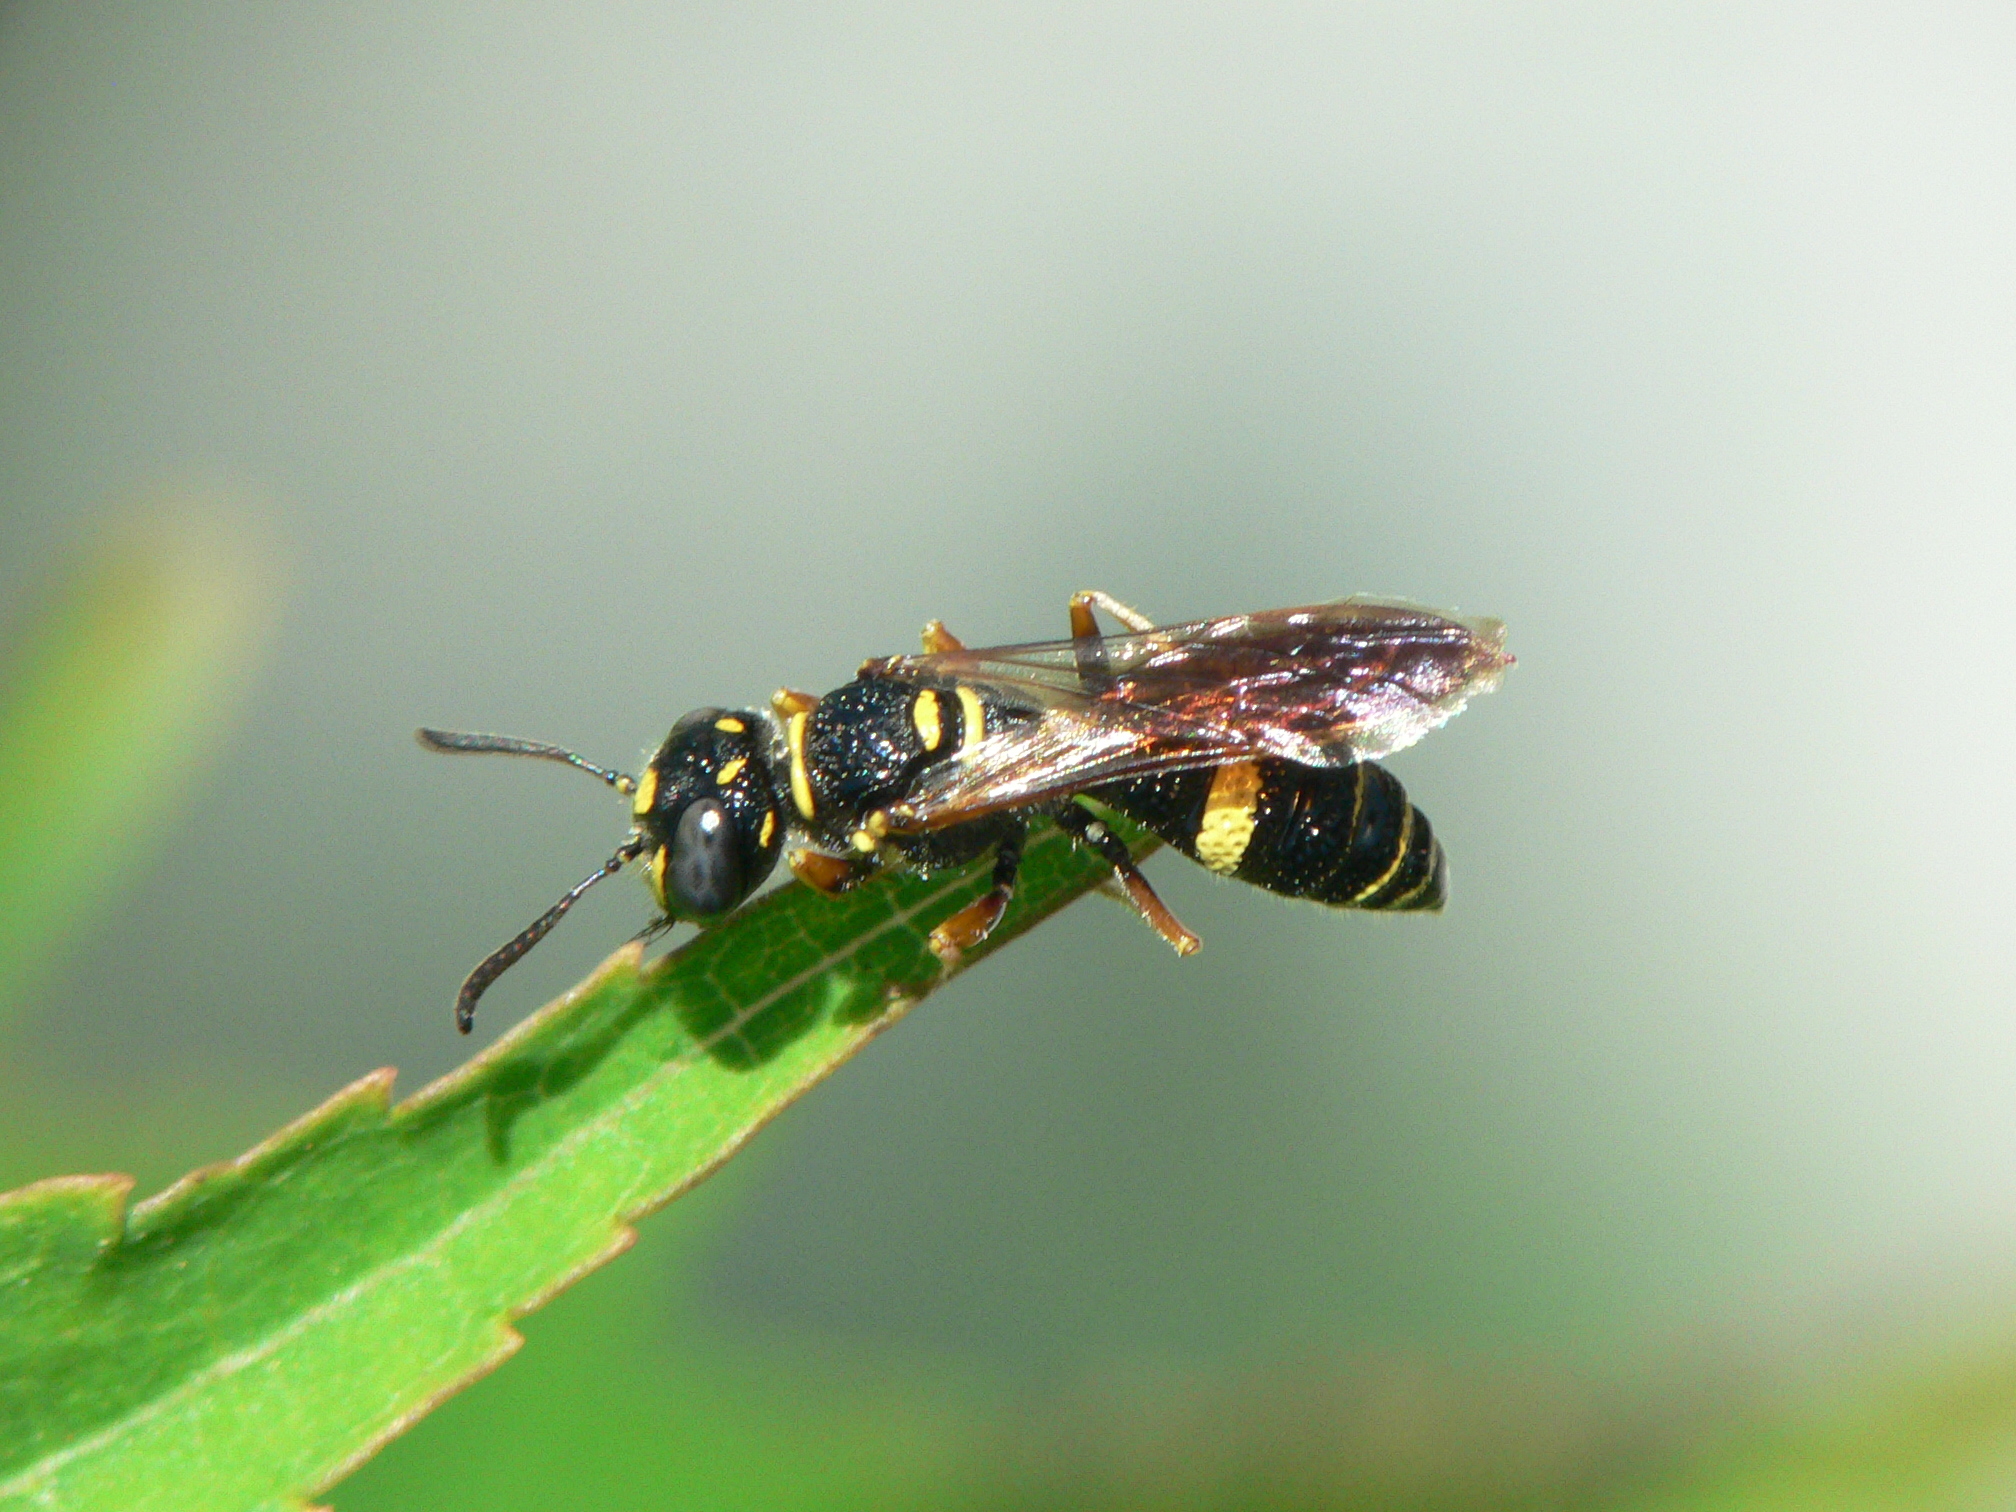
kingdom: Animalia
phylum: Arthropoda
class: Insecta
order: Hymenoptera
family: Crabronidae
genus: Philanthus
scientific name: Philanthus gibbosus
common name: Humped beewolf
